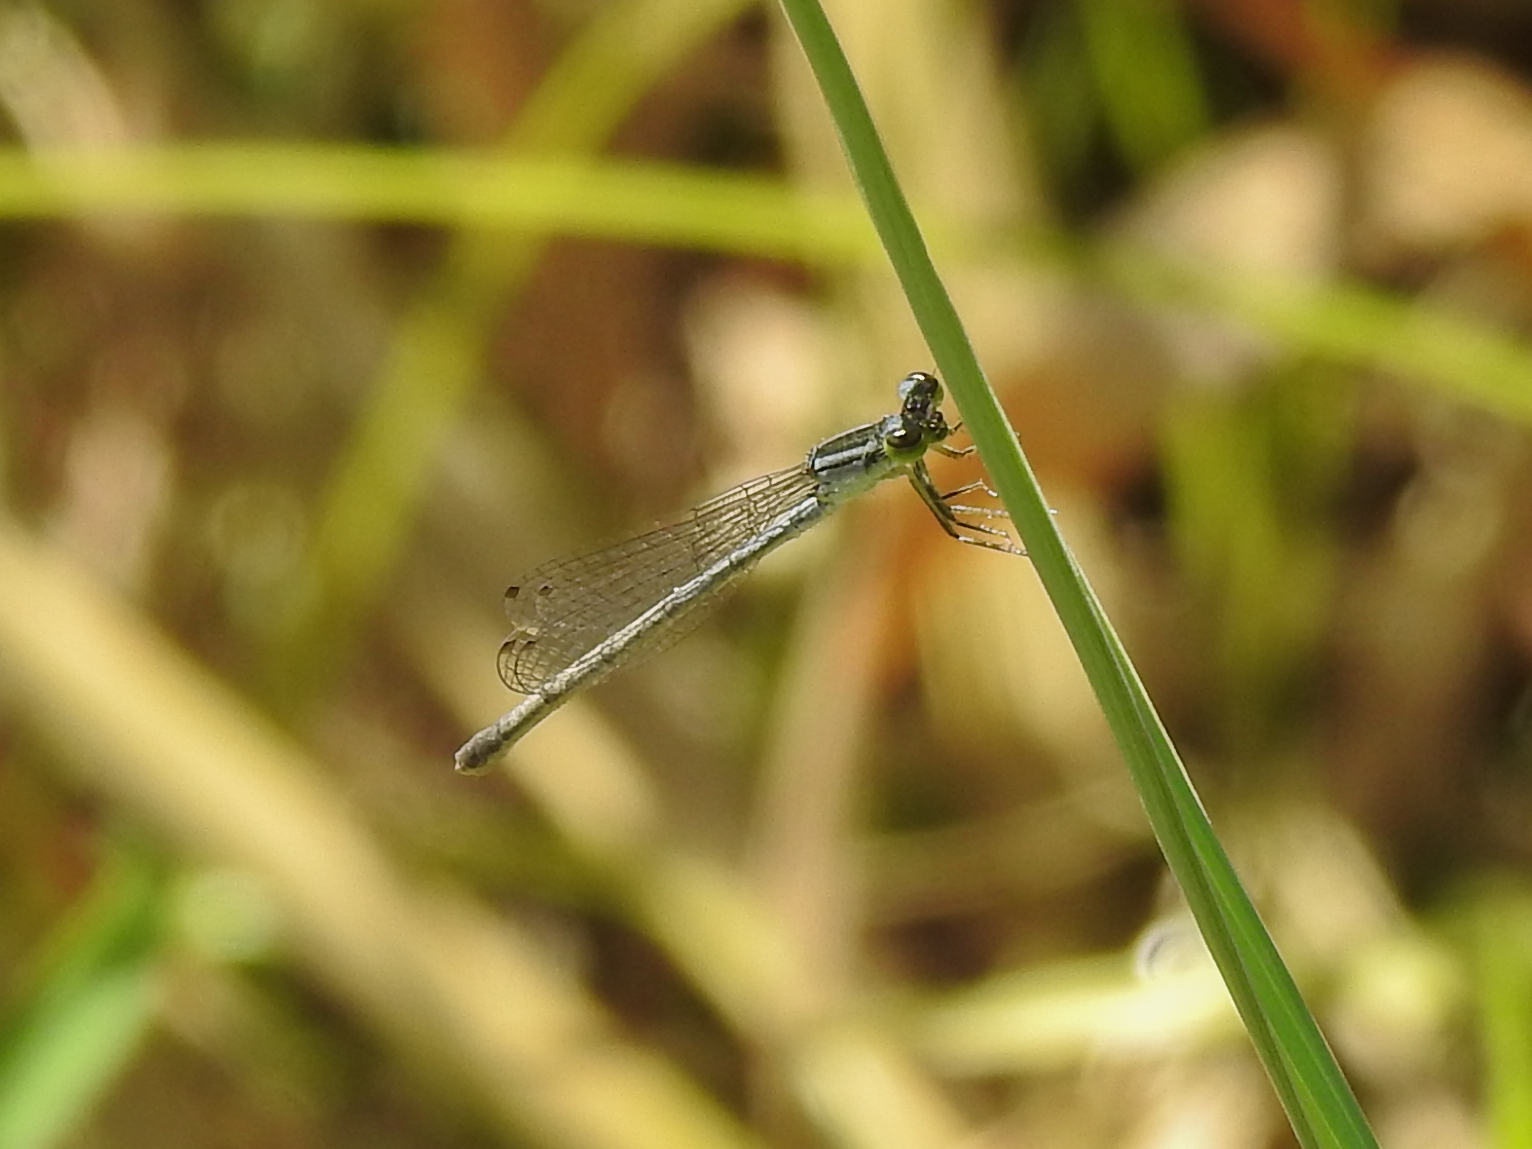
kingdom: Animalia
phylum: Arthropoda
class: Insecta
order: Odonata
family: Coenagrionidae
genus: Ischnura
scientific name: Ischnura verticalis
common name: Eastern forktail
